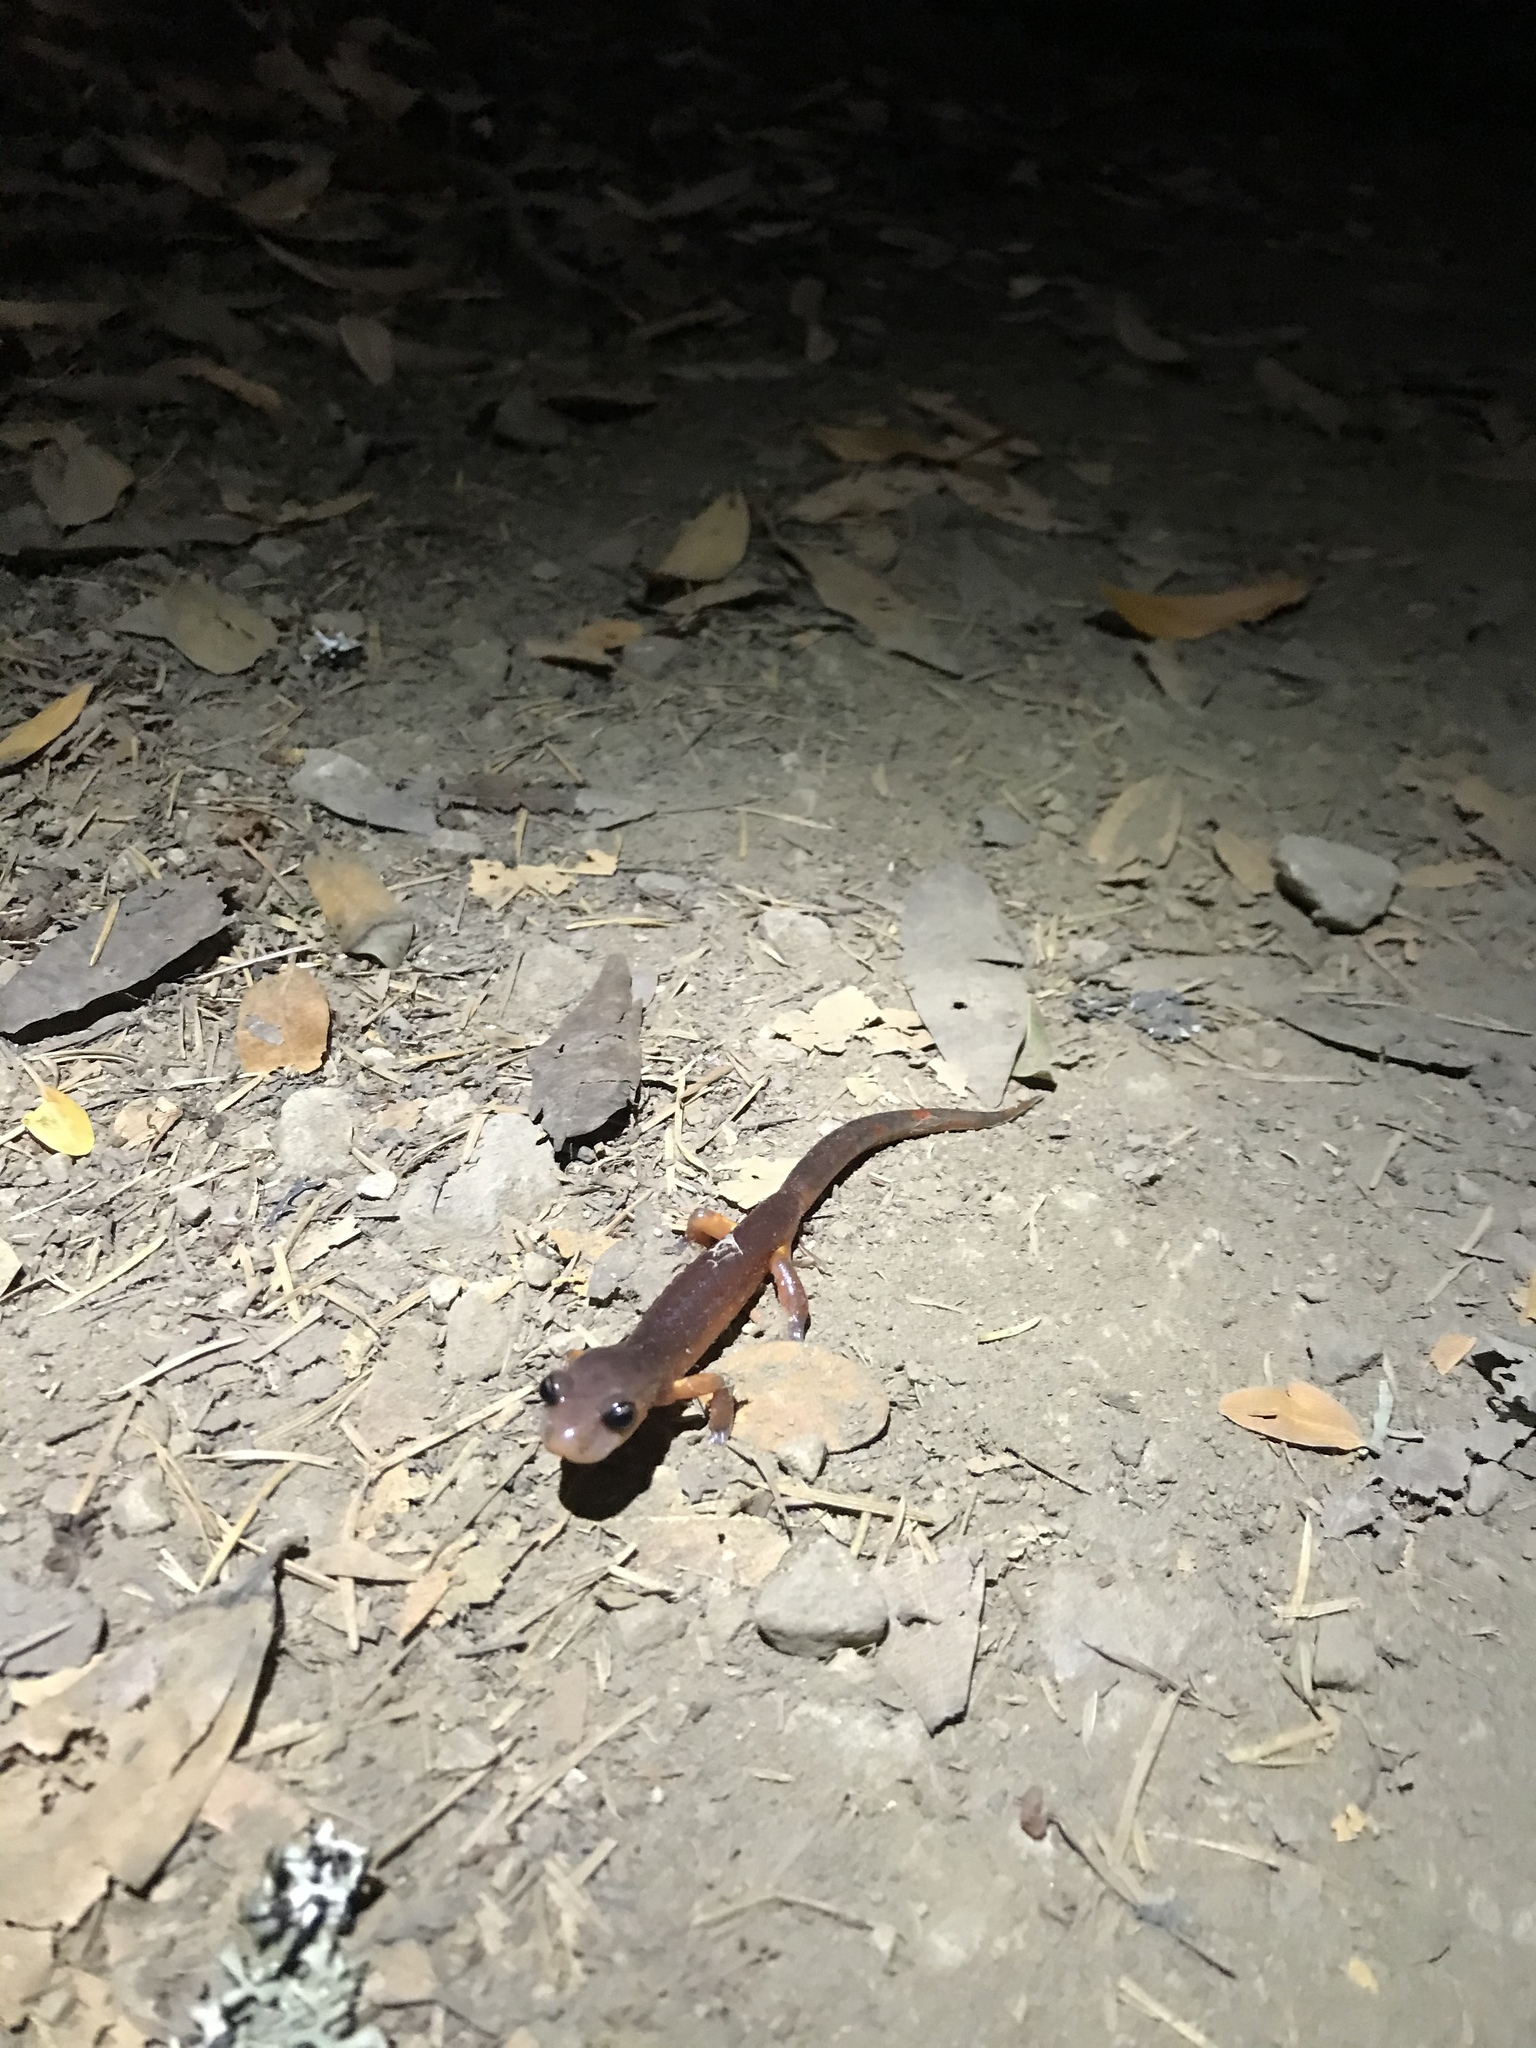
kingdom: Animalia
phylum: Chordata
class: Amphibia
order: Caudata
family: Plethodontidae
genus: Ensatina
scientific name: Ensatina eschscholtzii
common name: Ensatina
